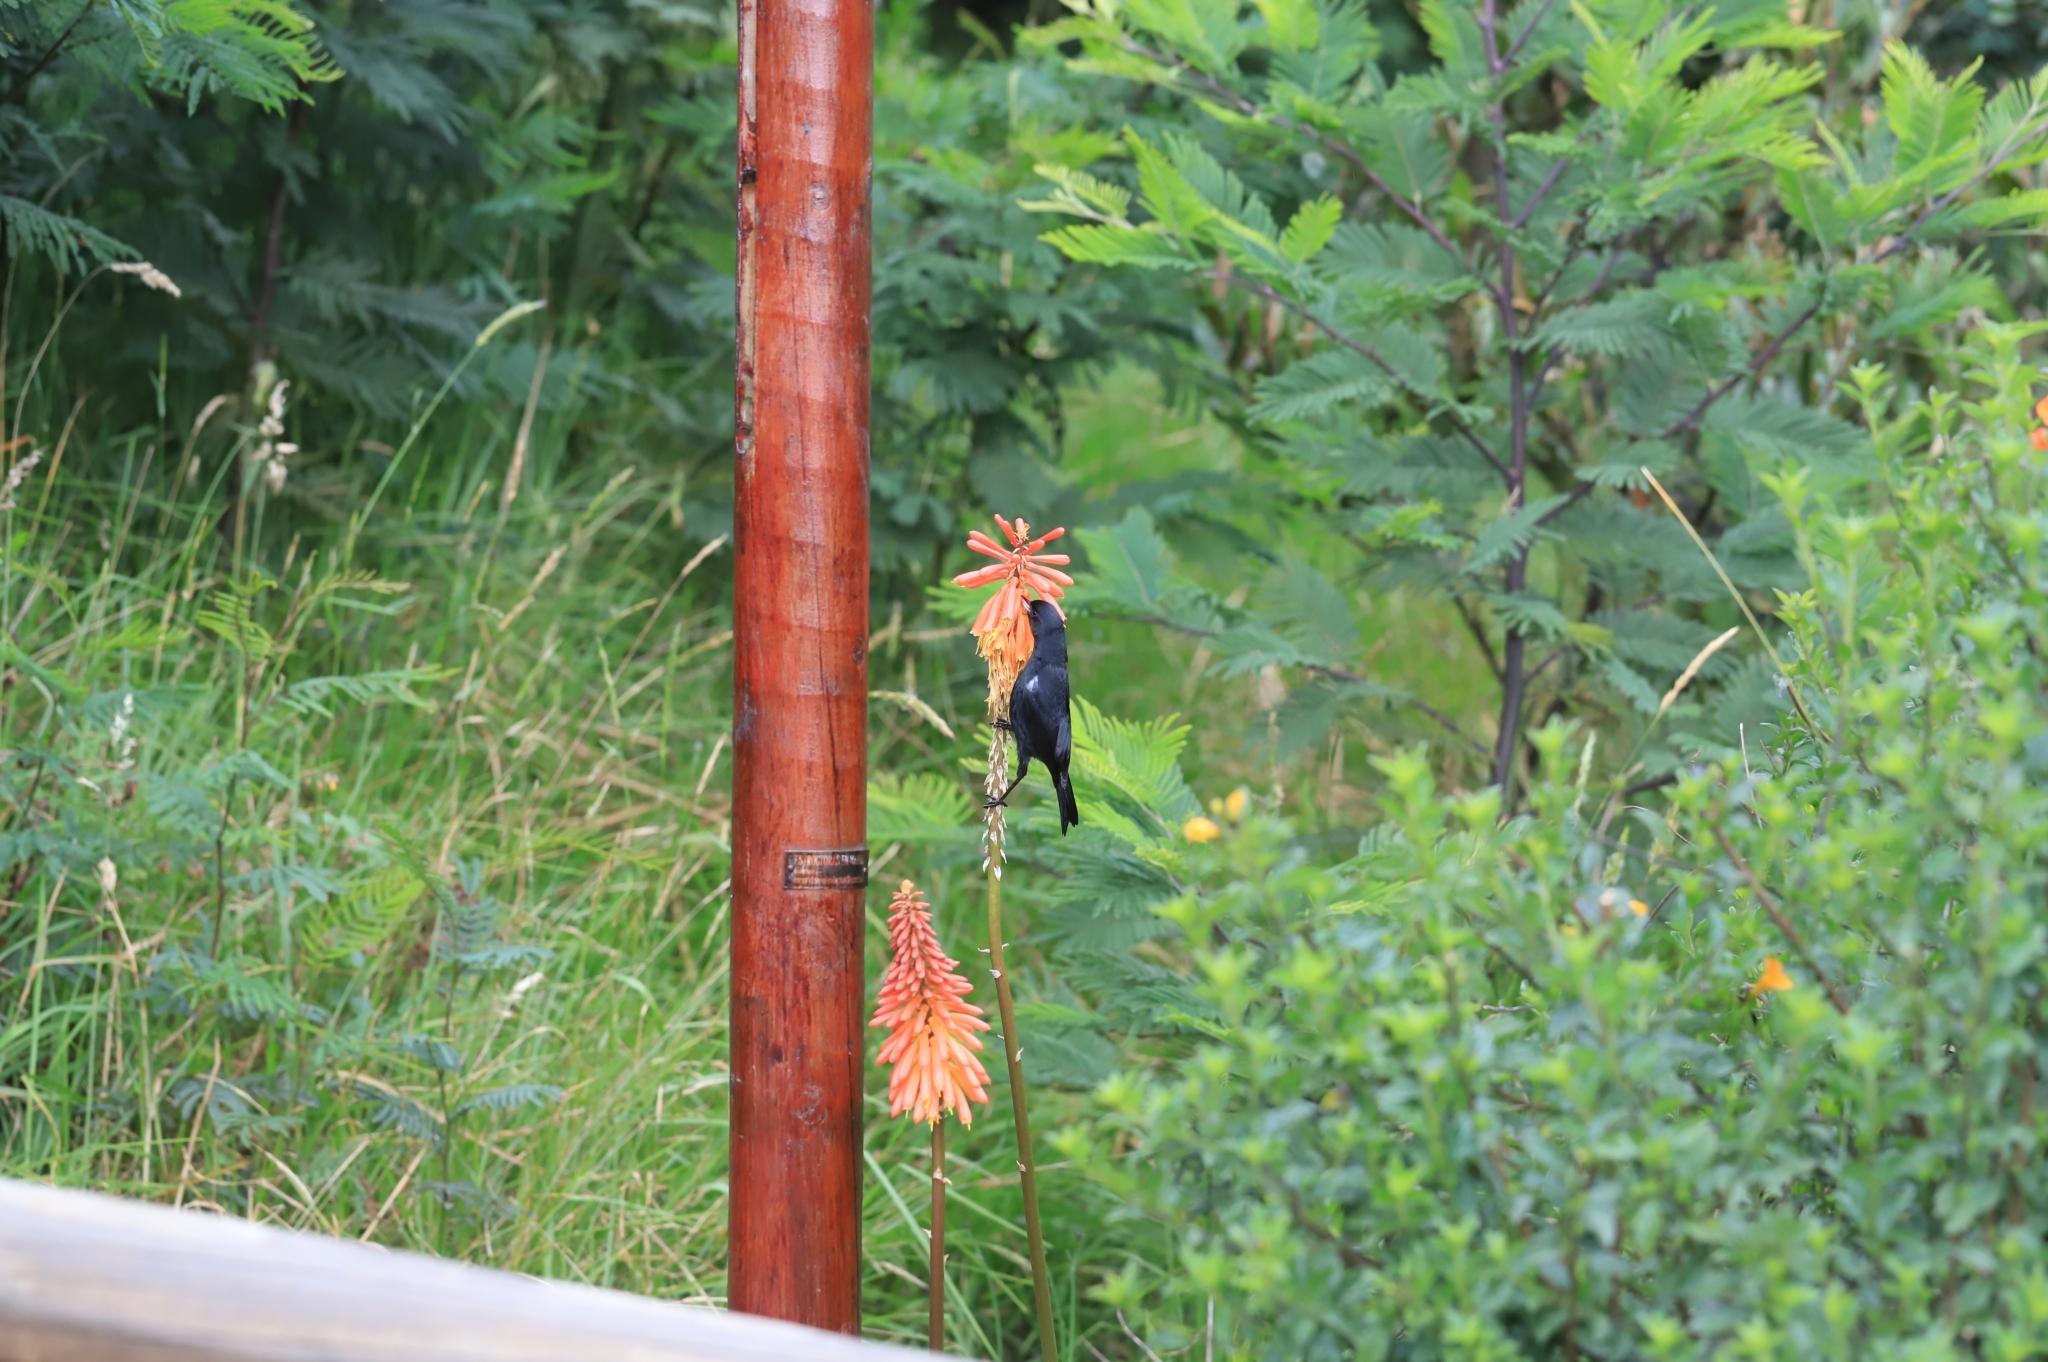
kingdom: Animalia
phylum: Chordata
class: Aves
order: Passeriformes
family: Thraupidae
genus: Diglossa
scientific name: Diglossa humeralis
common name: Black flowerpiercer
